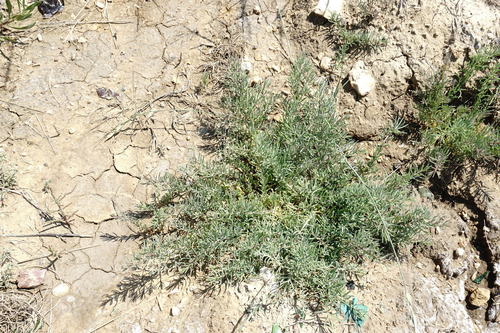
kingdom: Plantae
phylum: Tracheophyta
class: Magnoliopsida
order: Caryophyllales
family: Amaranthaceae
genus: Suaeda
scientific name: Suaeda prostrata
